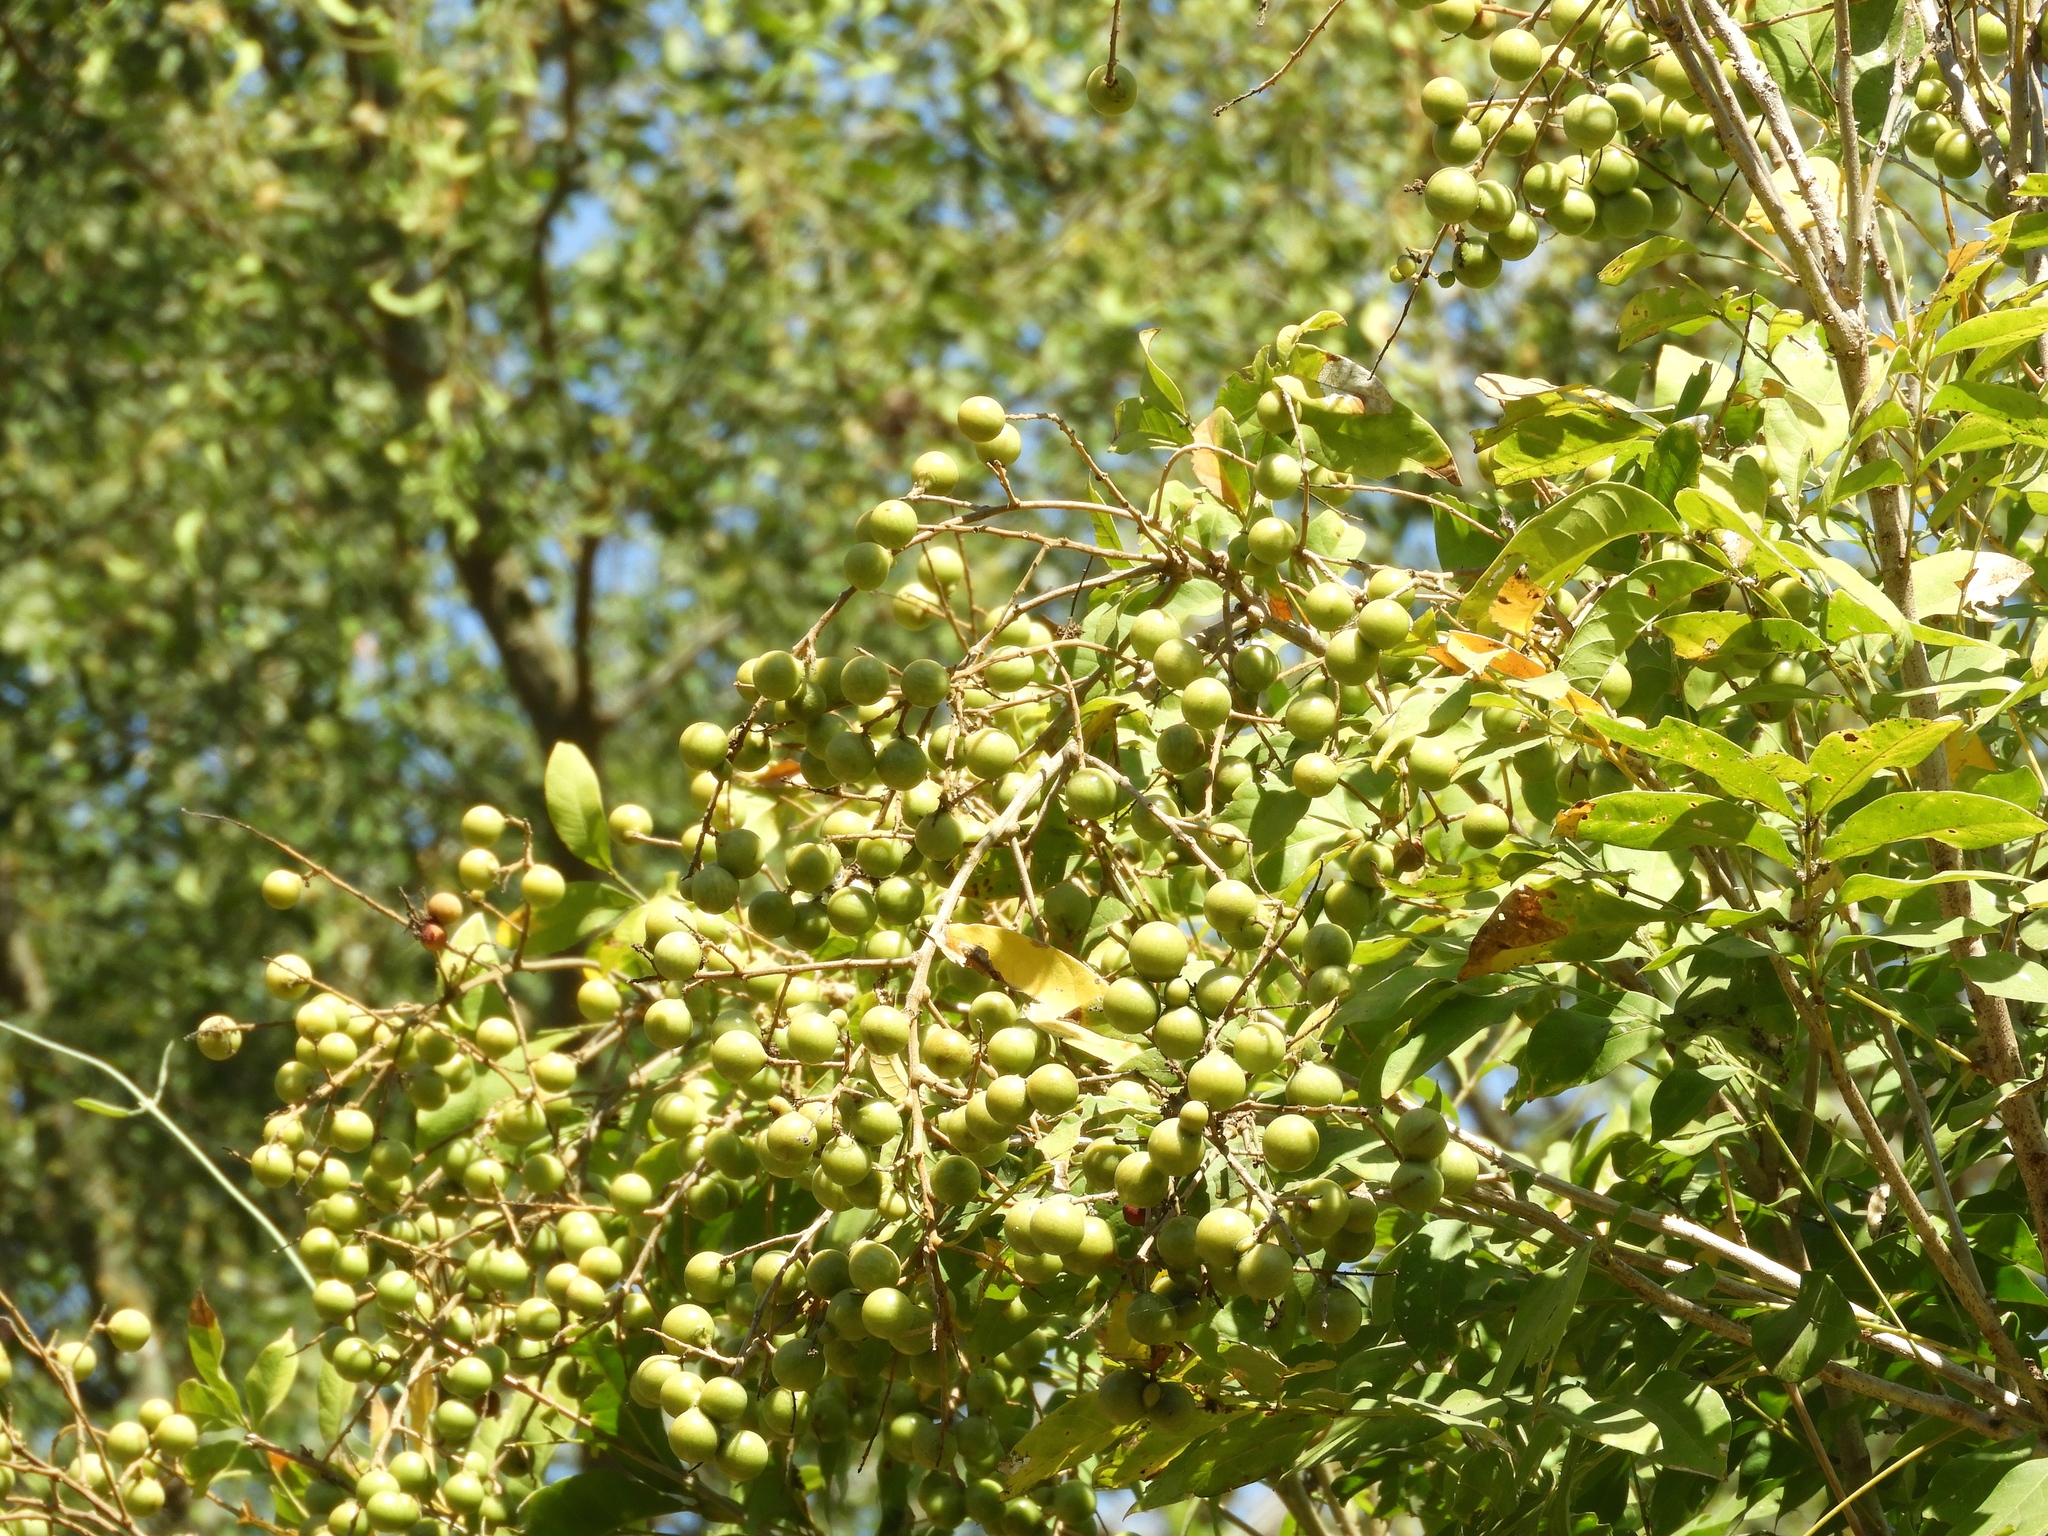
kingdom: Plantae
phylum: Tracheophyta
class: Magnoliopsida
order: Sapindales
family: Sapindaceae
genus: Sapindus
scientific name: Sapindus drummondii
